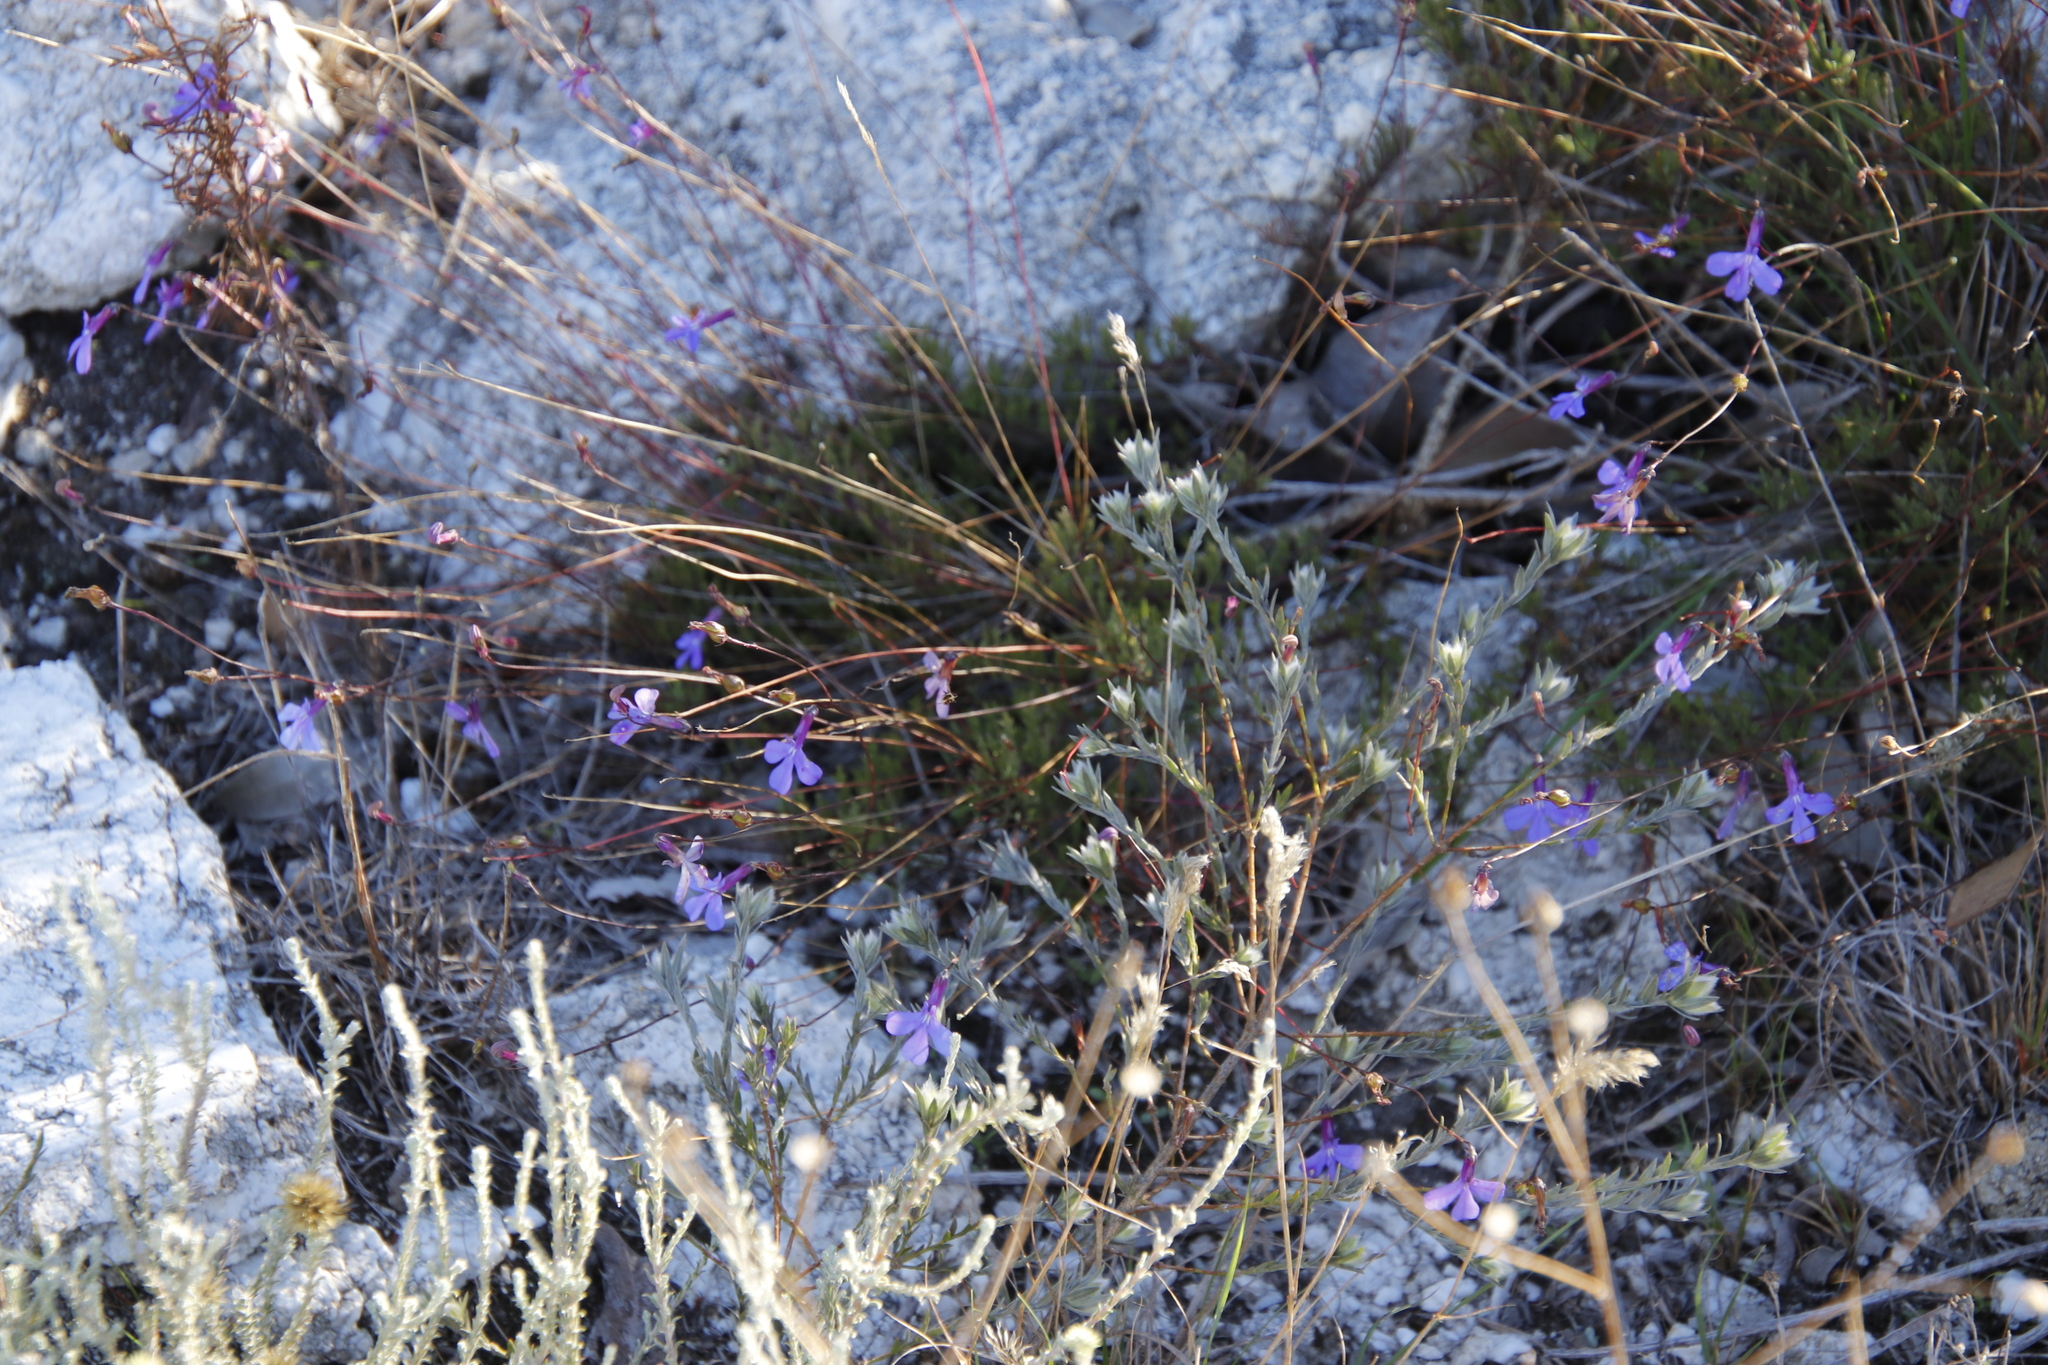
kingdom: Plantae
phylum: Tracheophyta
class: Magnoliopsida
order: Asterales
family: Campanulaceae
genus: Lobelia
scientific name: Lobelia coronopifolia
